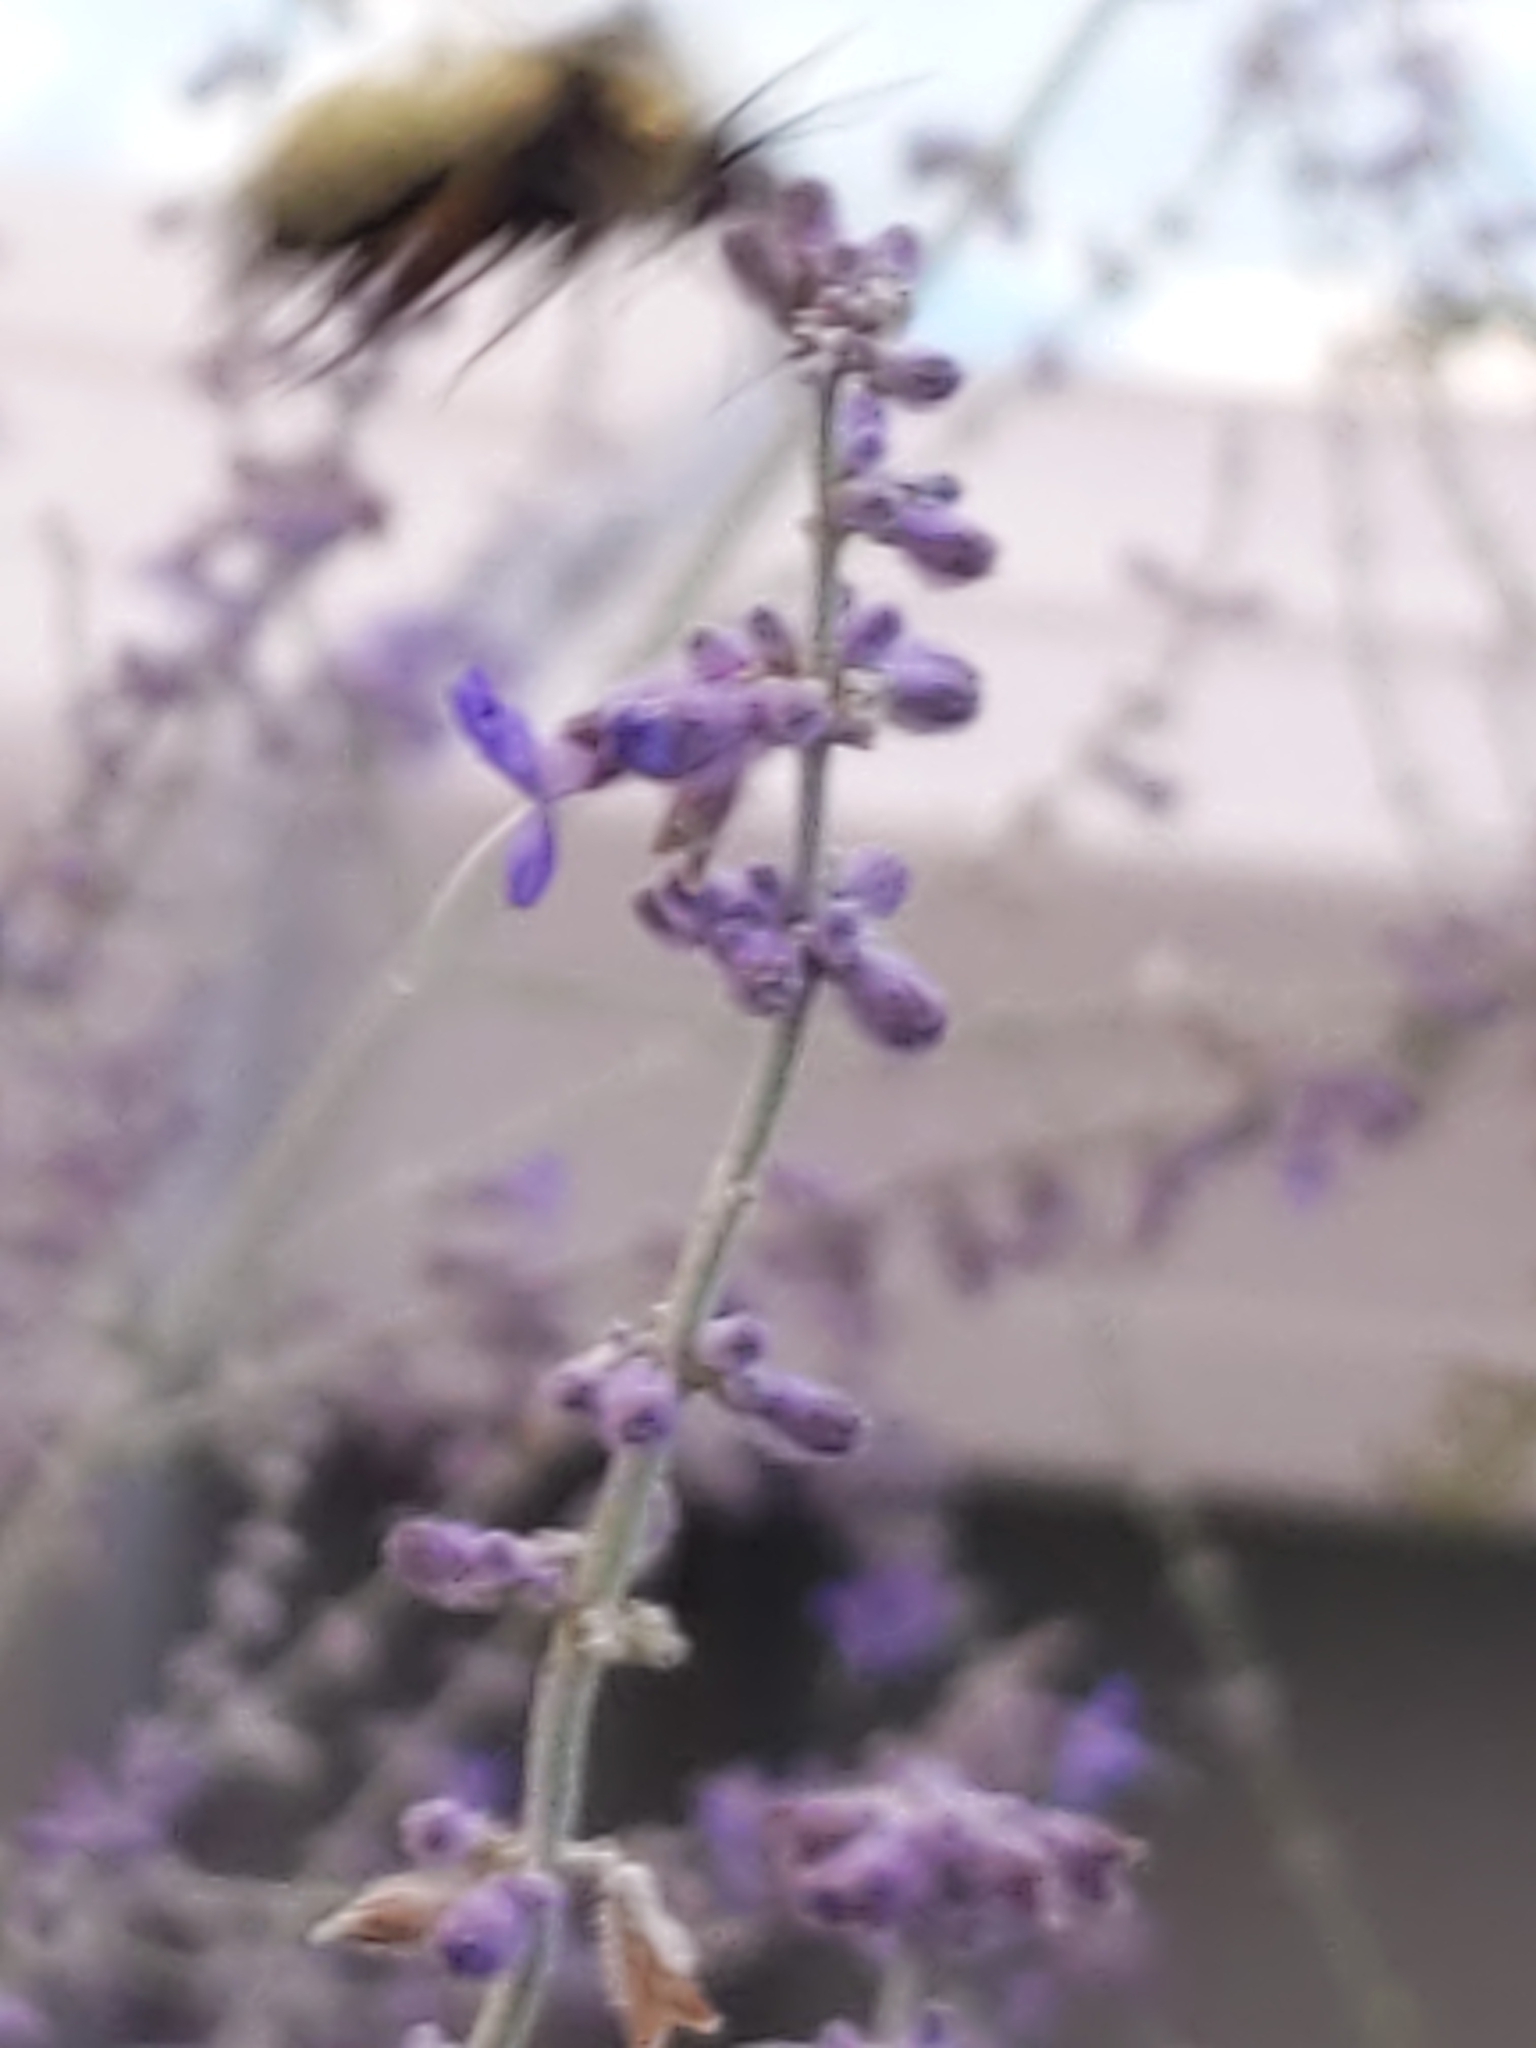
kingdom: Animalia
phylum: Arthropoda
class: Insecta
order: Hymenoptera
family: Apidae
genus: Bombus
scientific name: Bombus fervidus
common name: Yellow bumble bee
